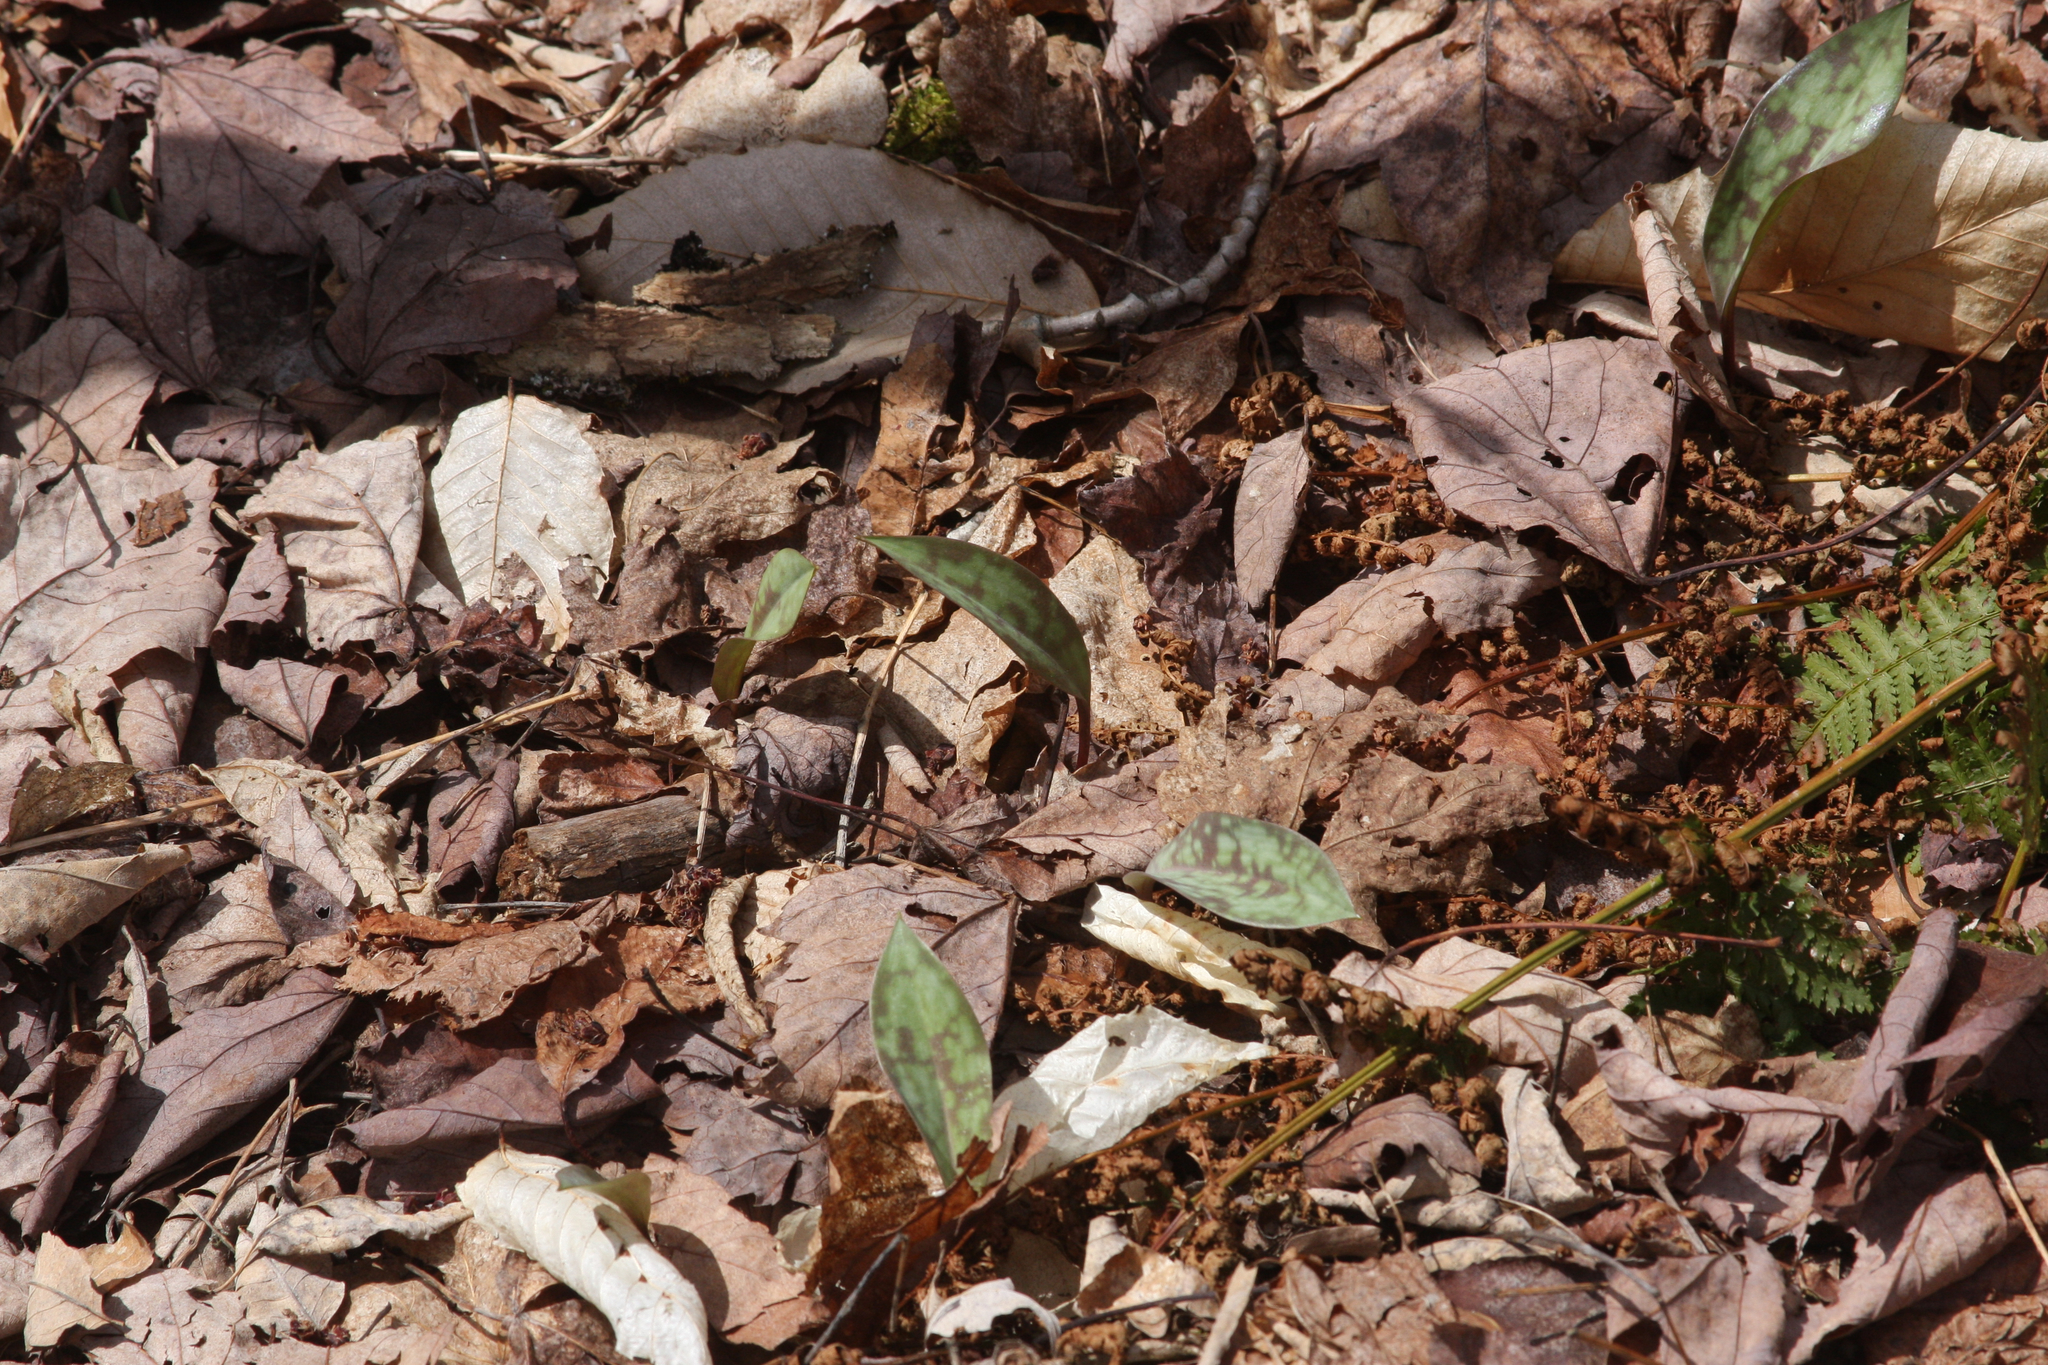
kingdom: Plantae
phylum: Tracheophyta
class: Liliopsida
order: Liliales
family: Liliaceae
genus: Erythronium
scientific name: Erythronium americanum
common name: Yellow adder's-tongue
